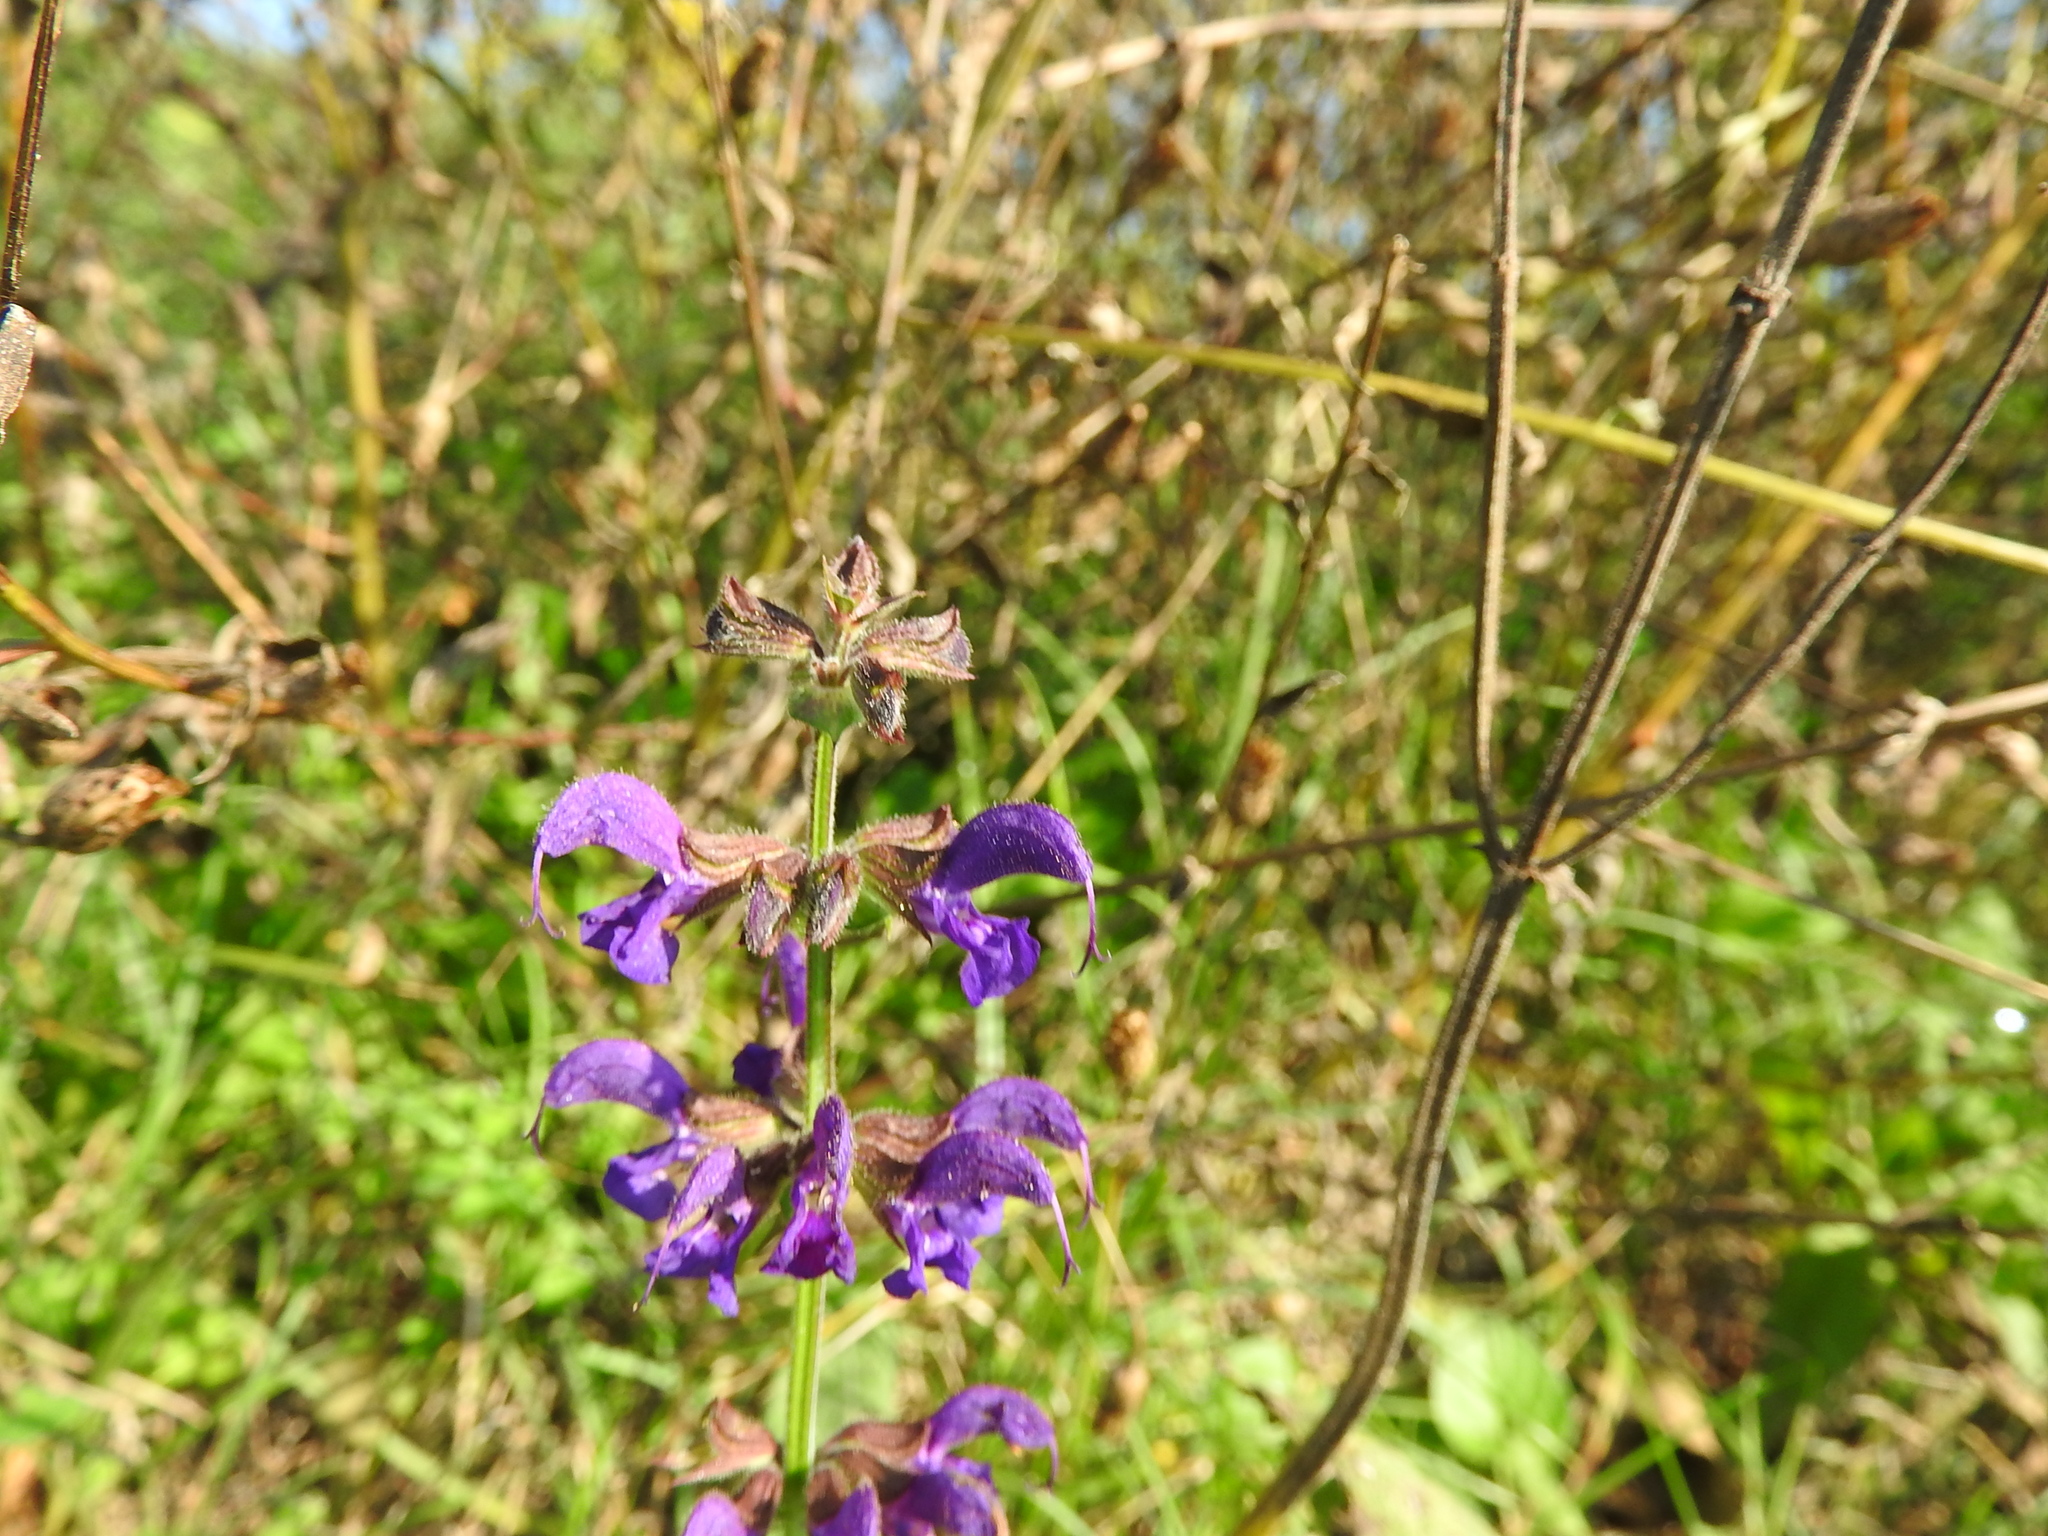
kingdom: Plantae
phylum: Tracheophyta
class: Magnoliopsida
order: Lamiales
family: Lamiaceae
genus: Salvia
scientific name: Salvia pratensis
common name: Meadow sage
